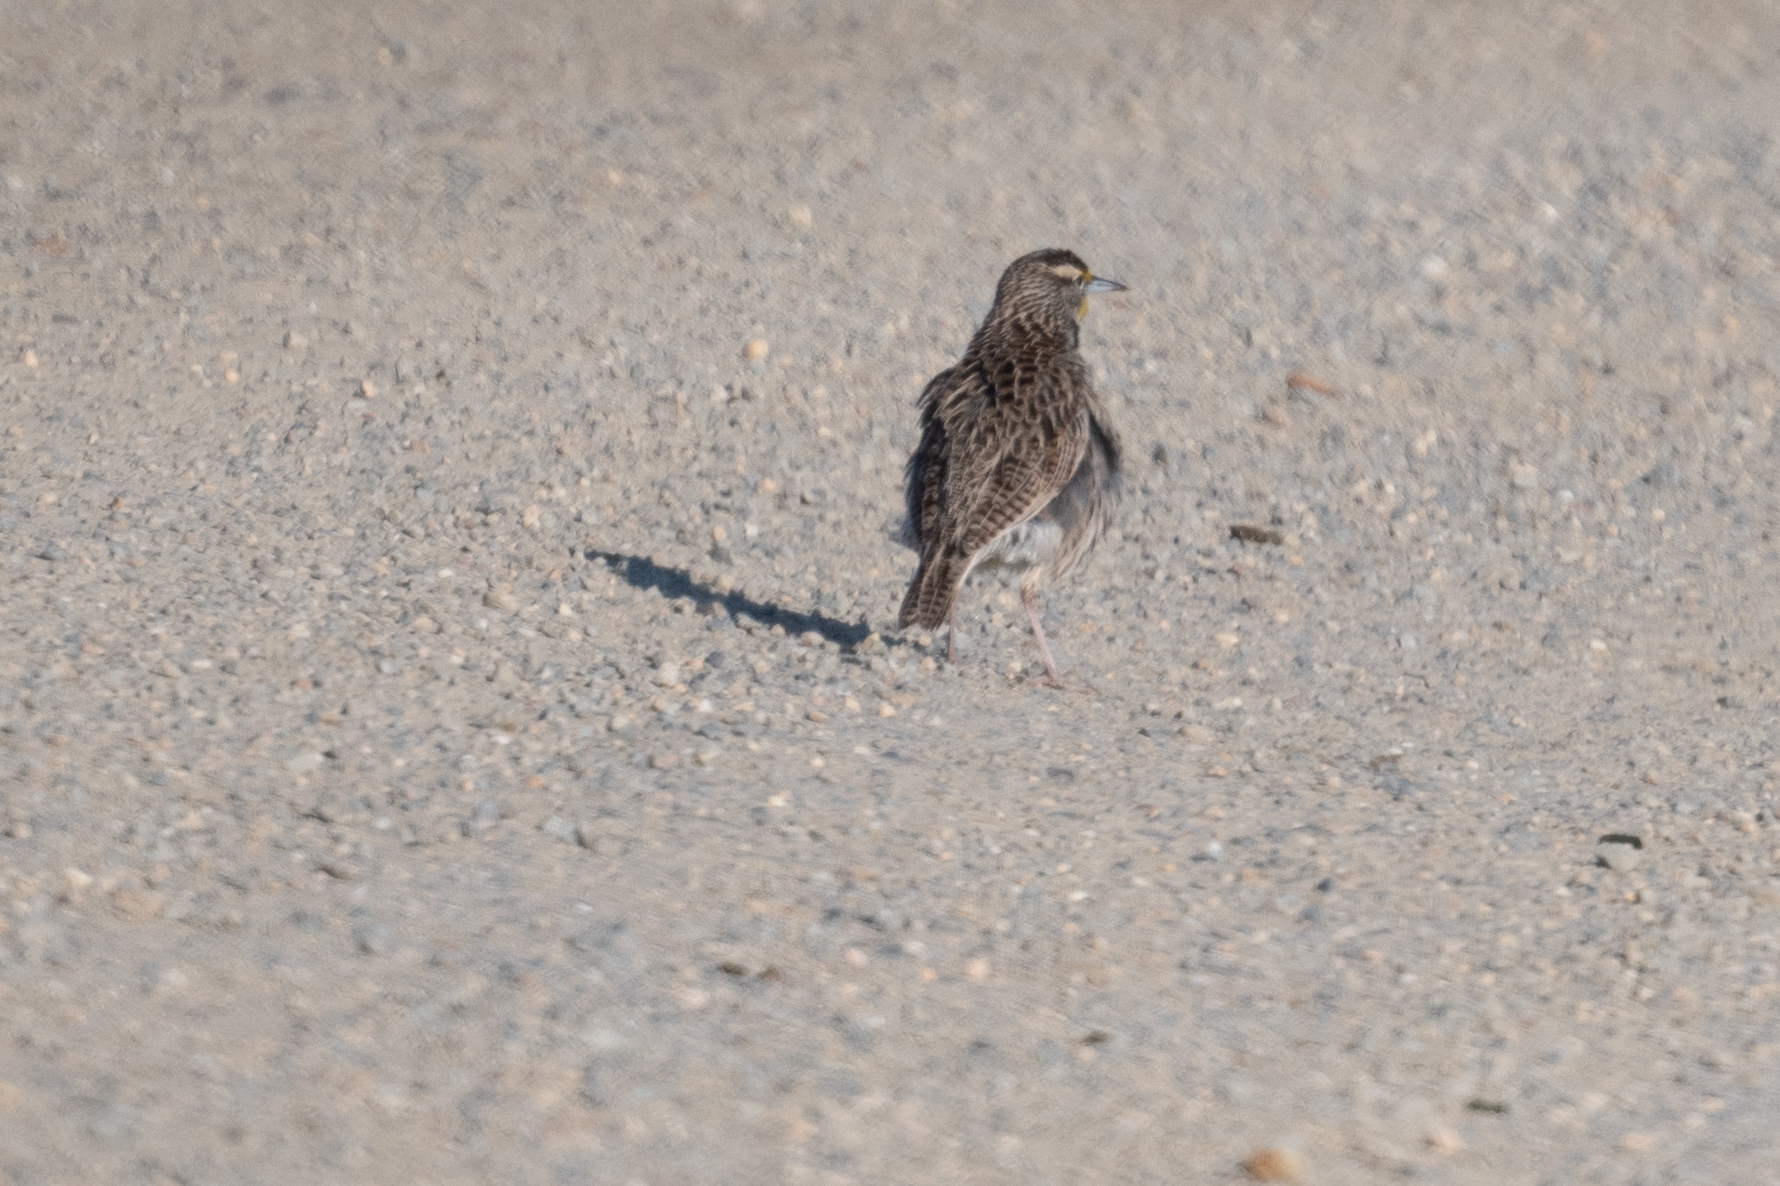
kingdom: Animalia
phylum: Chordata
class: Aves
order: Passeriformes
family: Icteridae
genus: Sturnella
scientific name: Sturnella neglecta
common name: Western meadowlark
